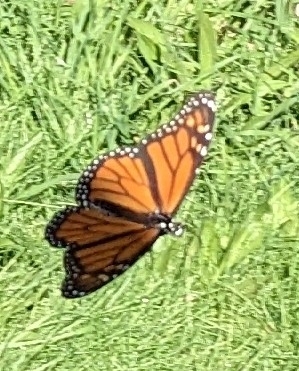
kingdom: Animalia
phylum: Arthropoda
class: Insecta
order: Lepidoptera
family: Nymphalidae
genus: Danaus
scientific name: Danaus plexippus
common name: Monarch
